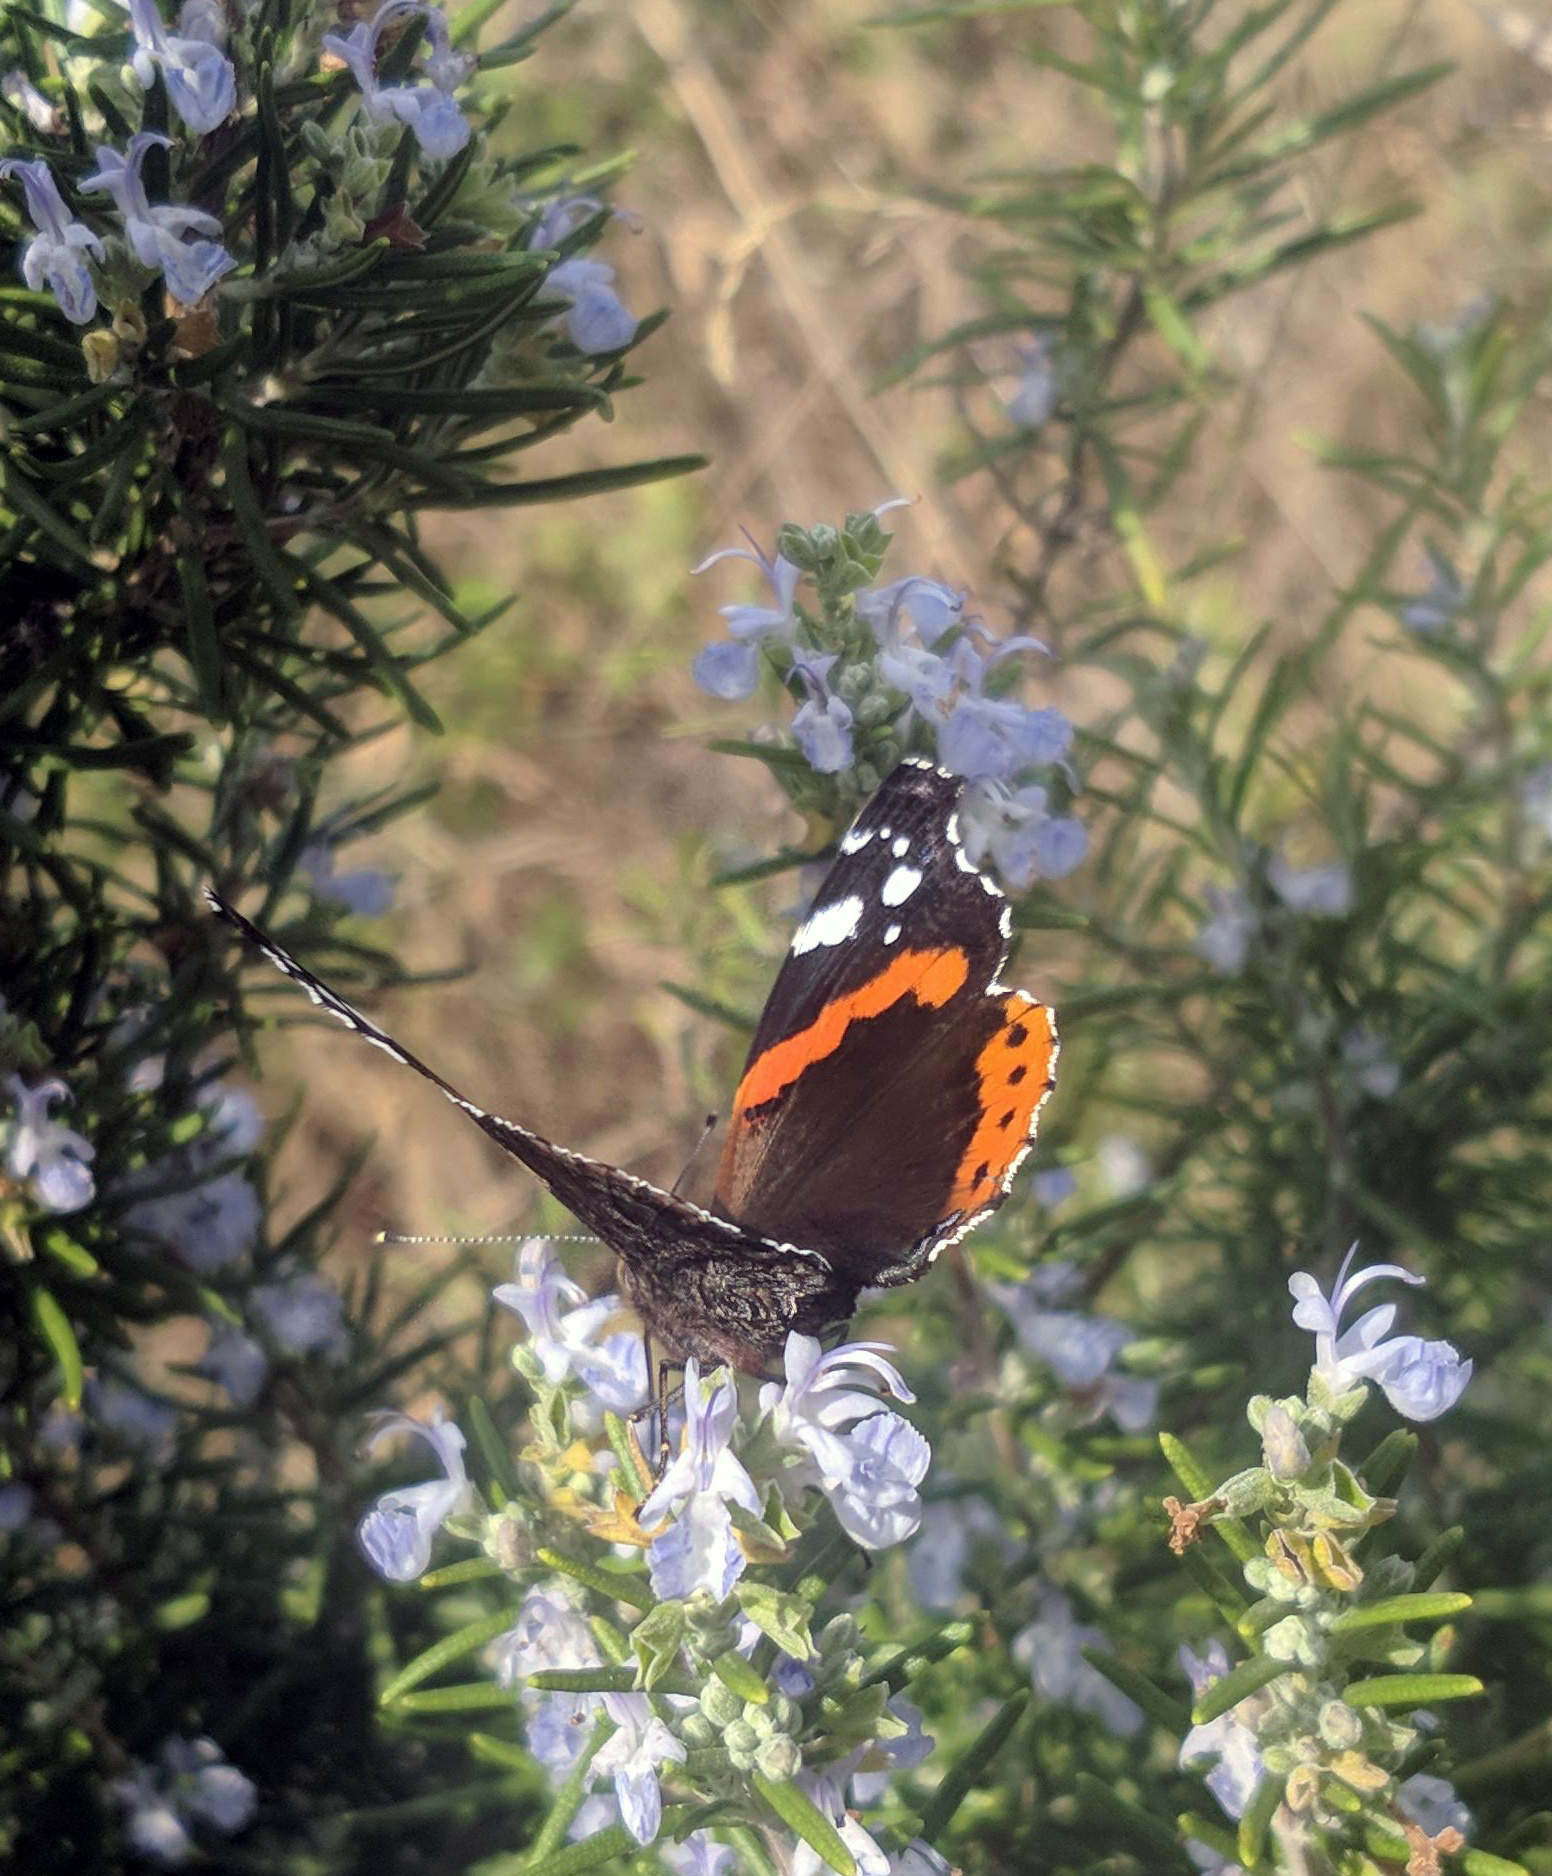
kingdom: Animalia
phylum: Arthropoda
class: Insecta
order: Lepidoptera
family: Nymphalidae
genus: Vanessa
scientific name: Vanessa atalanta
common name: Red admiral
